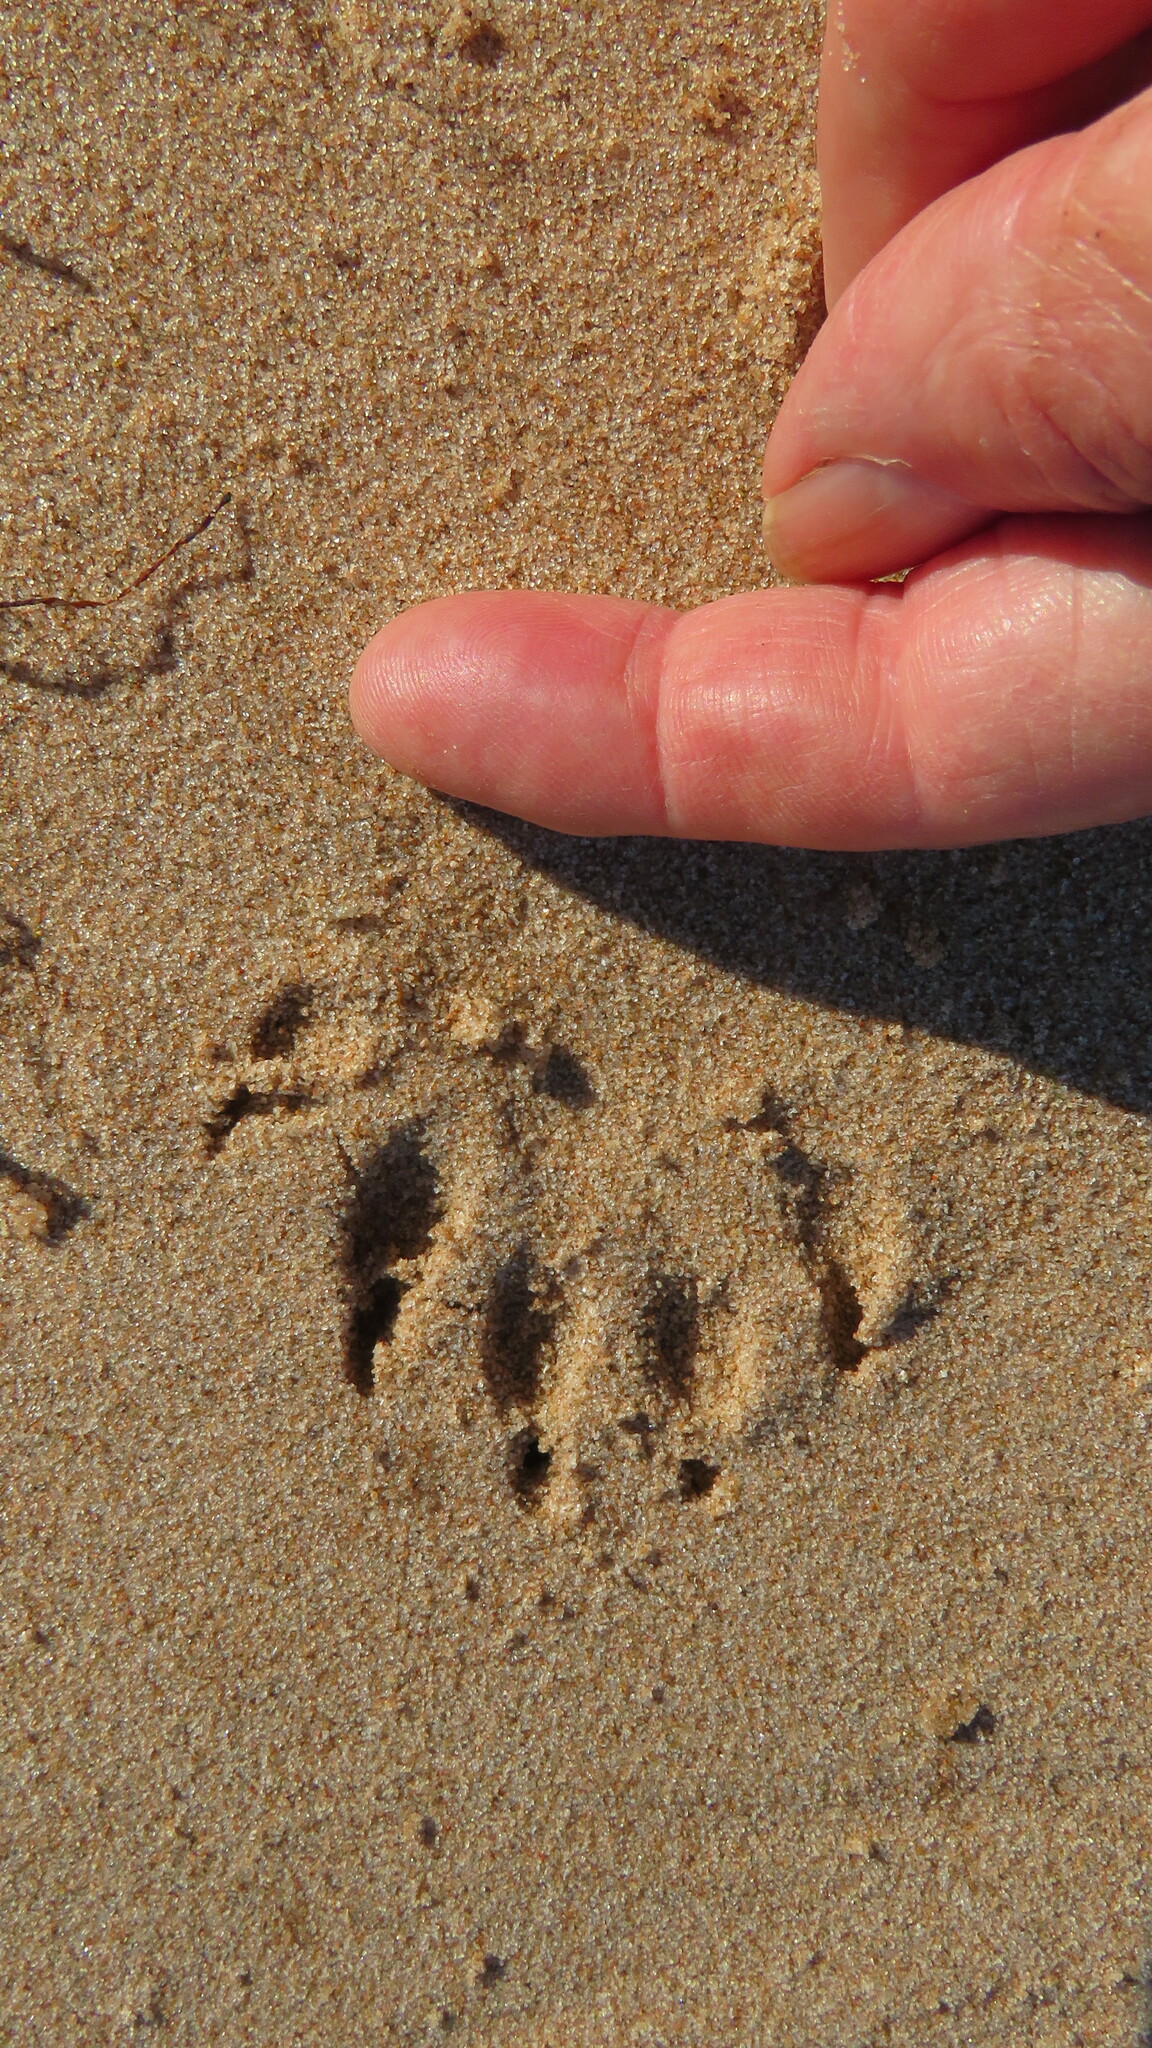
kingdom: Animalia
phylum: Chordata
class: Mammalia
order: Carnivora
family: Procyonidae
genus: Procyon
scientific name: Procyon lotor
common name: Raccoon
